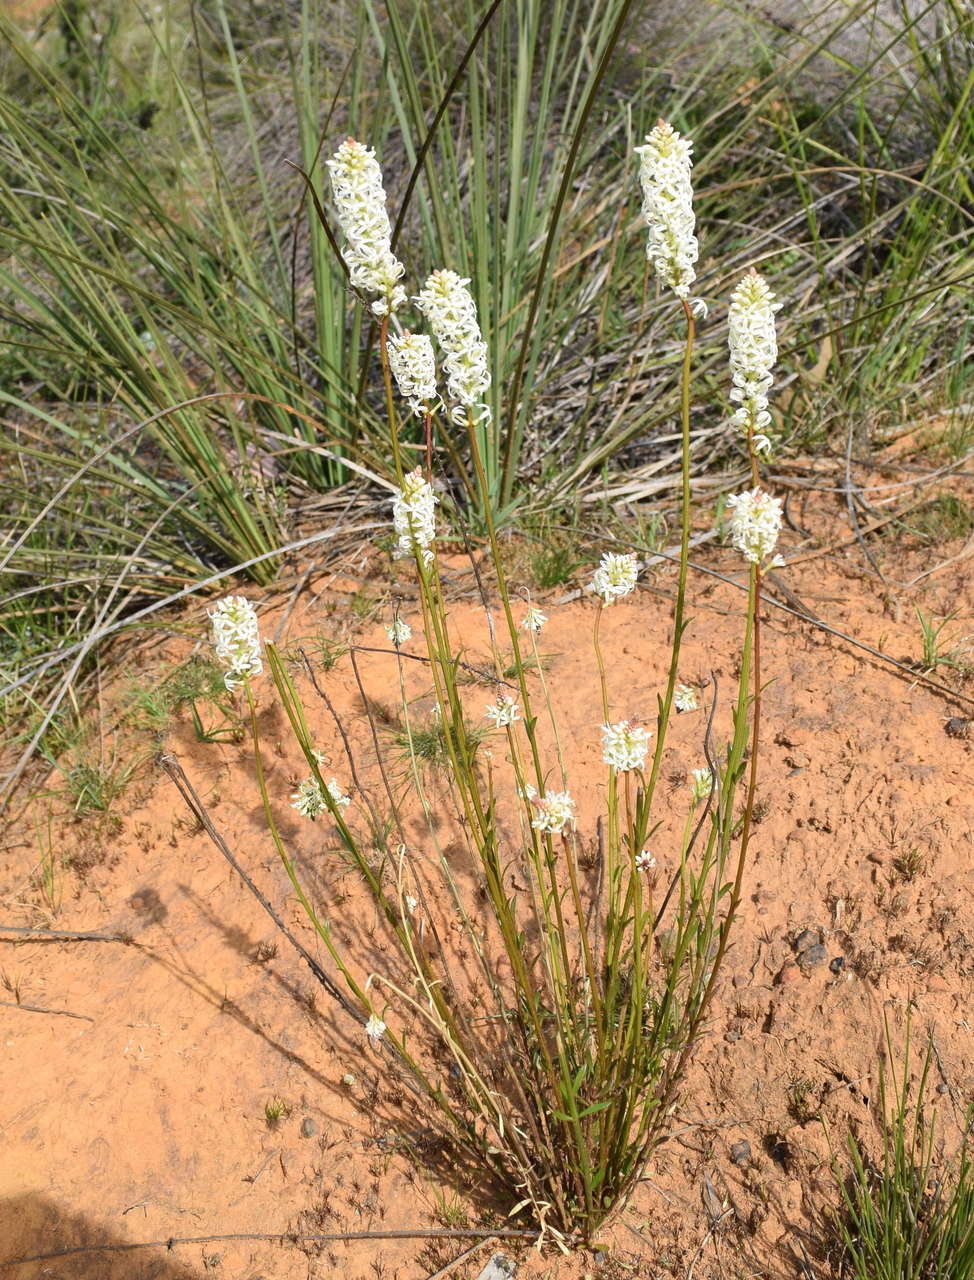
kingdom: Plantae
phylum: Tracheophyta
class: Magnoliopsida
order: Celastrales
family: Celastraceae
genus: Stackhousia
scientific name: Stackhousia monogyna
